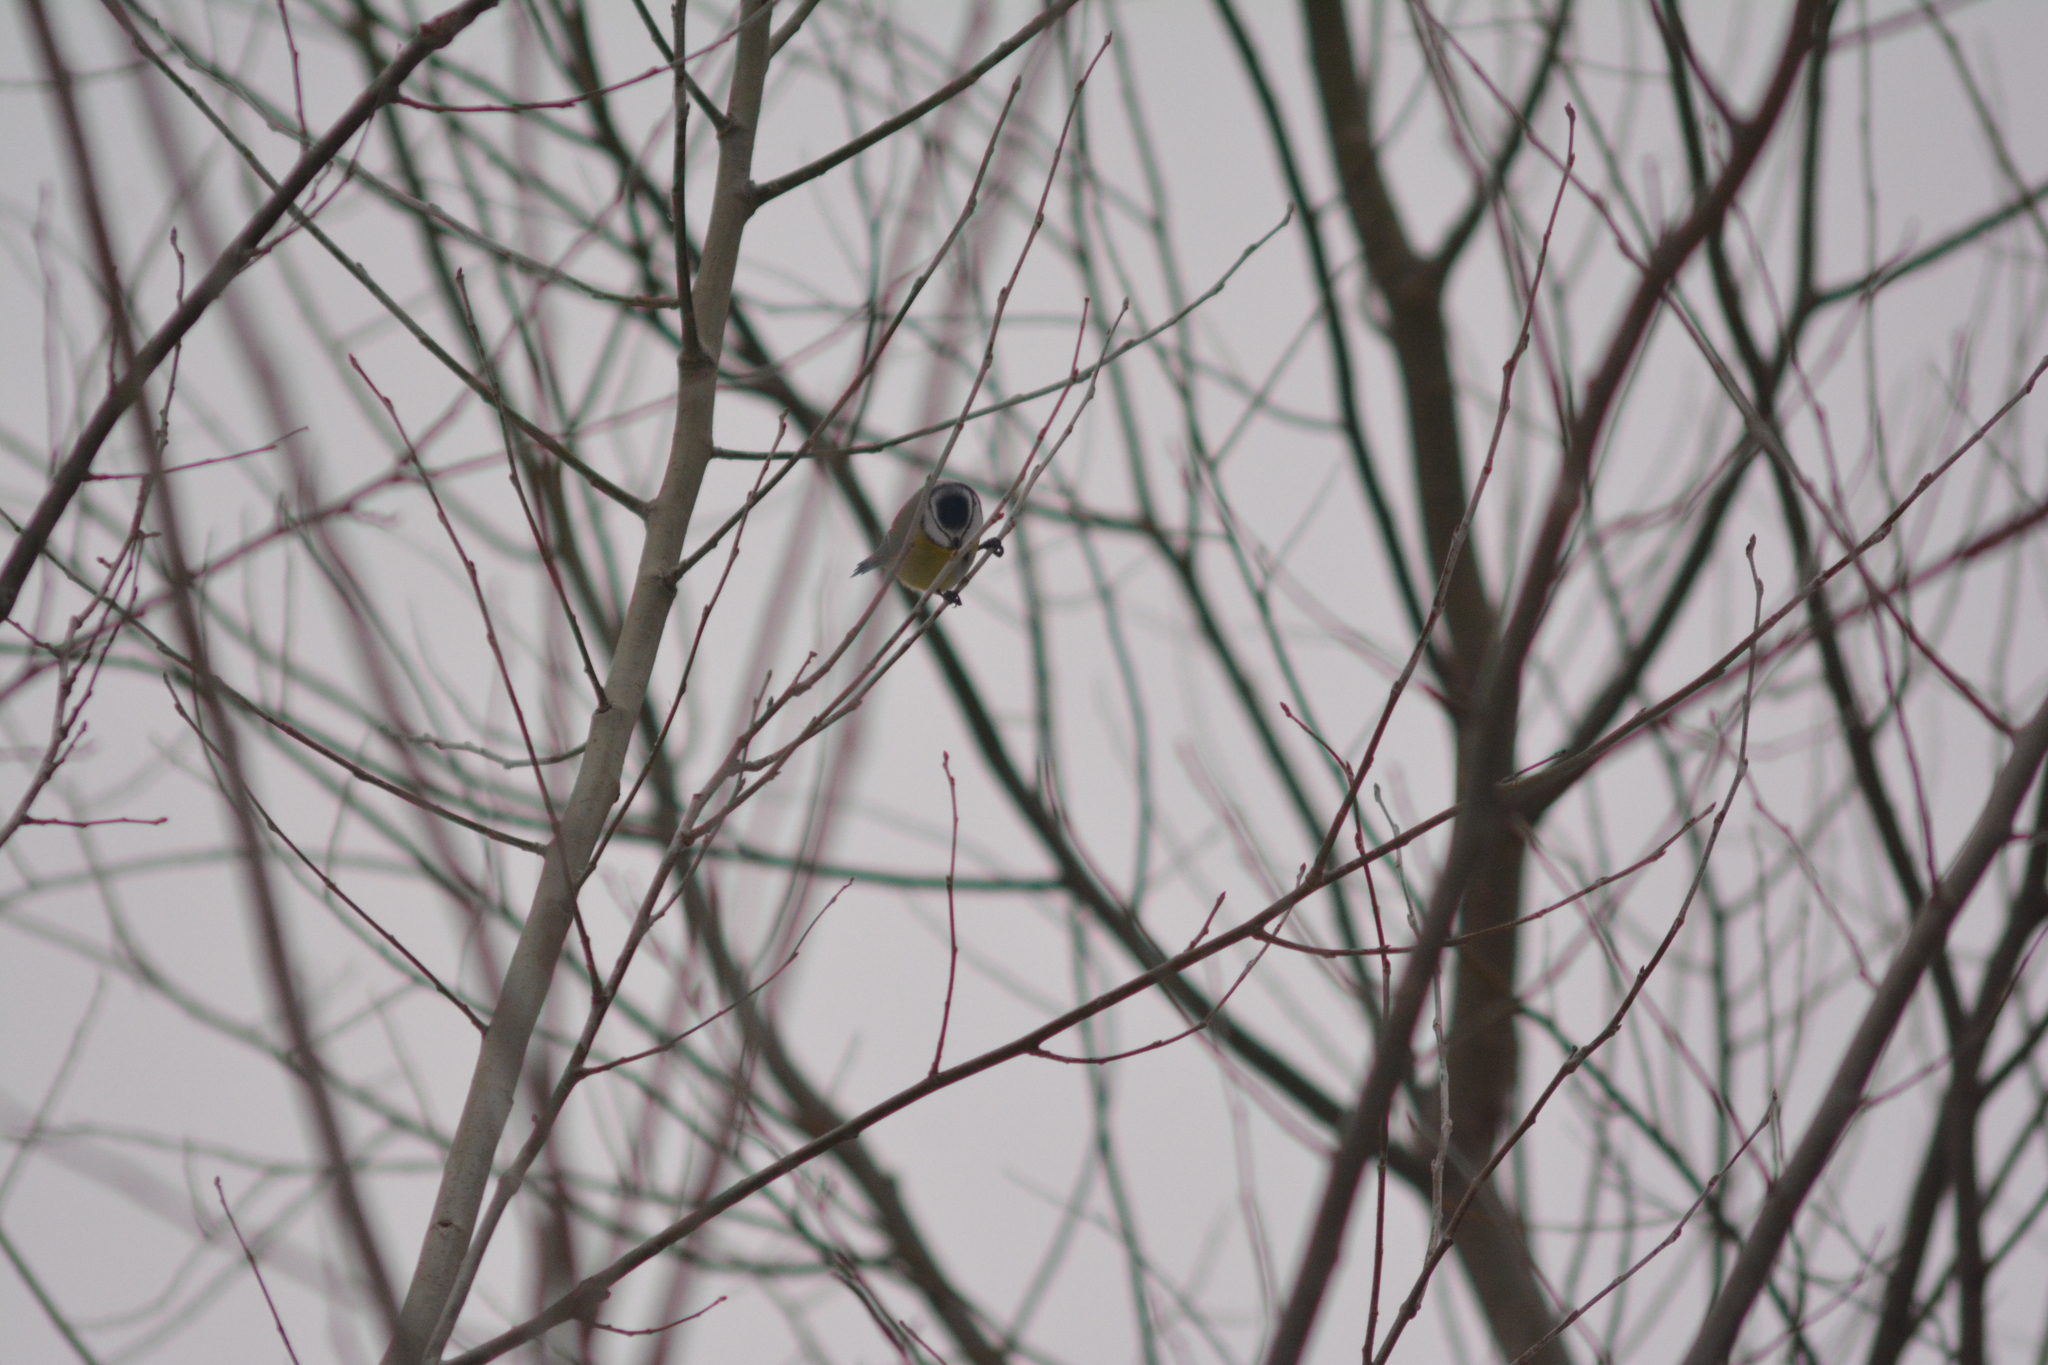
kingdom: Animalia
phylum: Chordata
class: Aves
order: Passeriformes
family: Paridae
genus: Cyanistes
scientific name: Cyanistes caeruleus
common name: Eurasian blue tit
